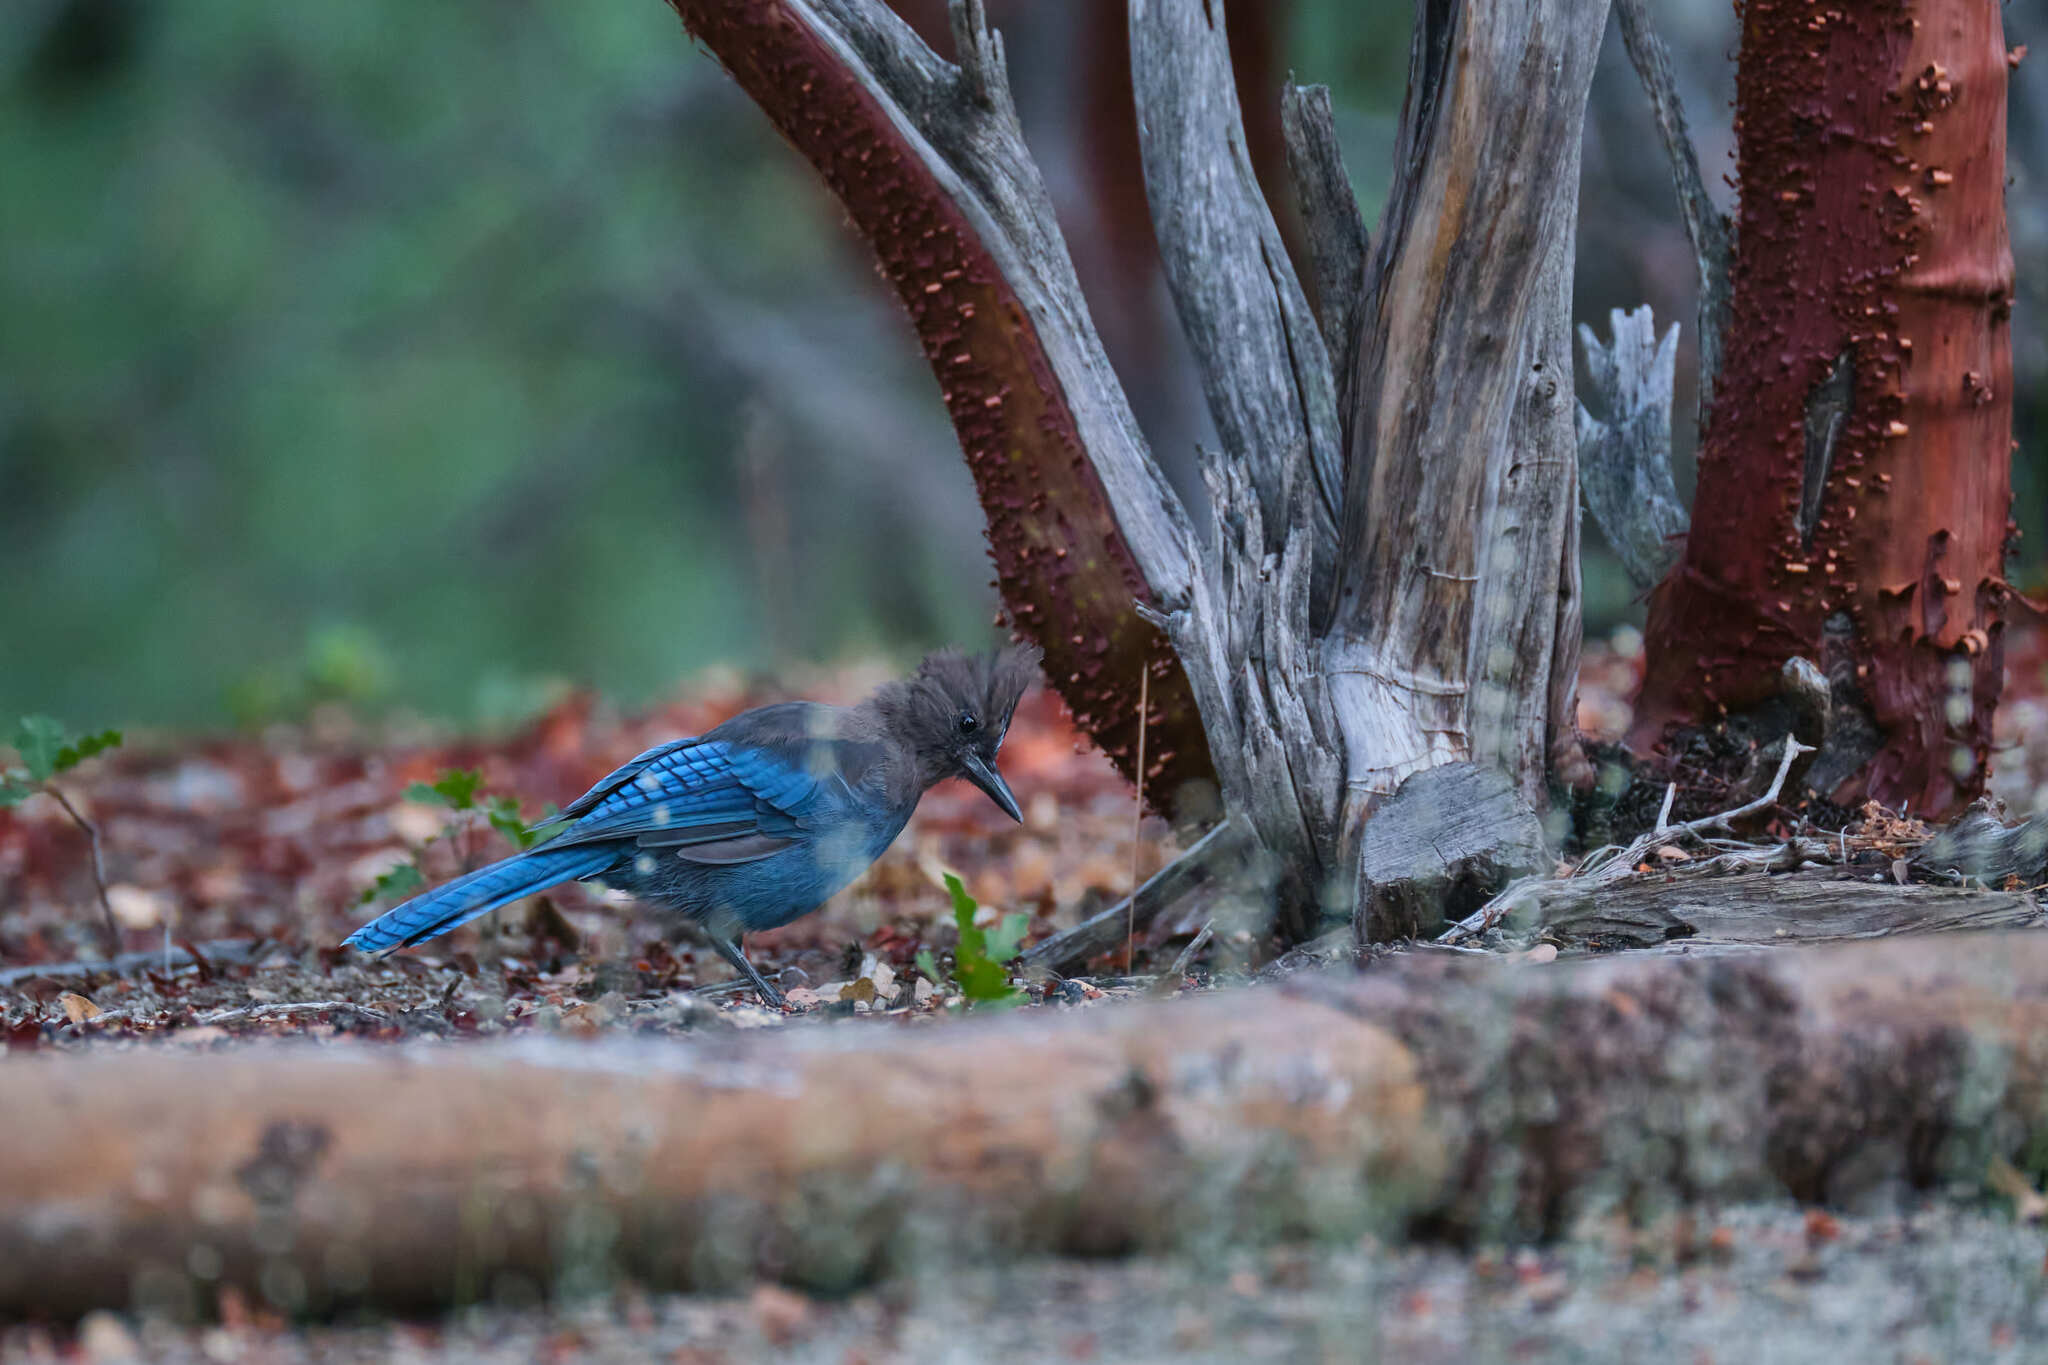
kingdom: Animalia
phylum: Chordata
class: Aves
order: Passeriformes
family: Corvidae
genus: Cyanocitta
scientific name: Cyanocitta stelleri
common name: Steller's jay
